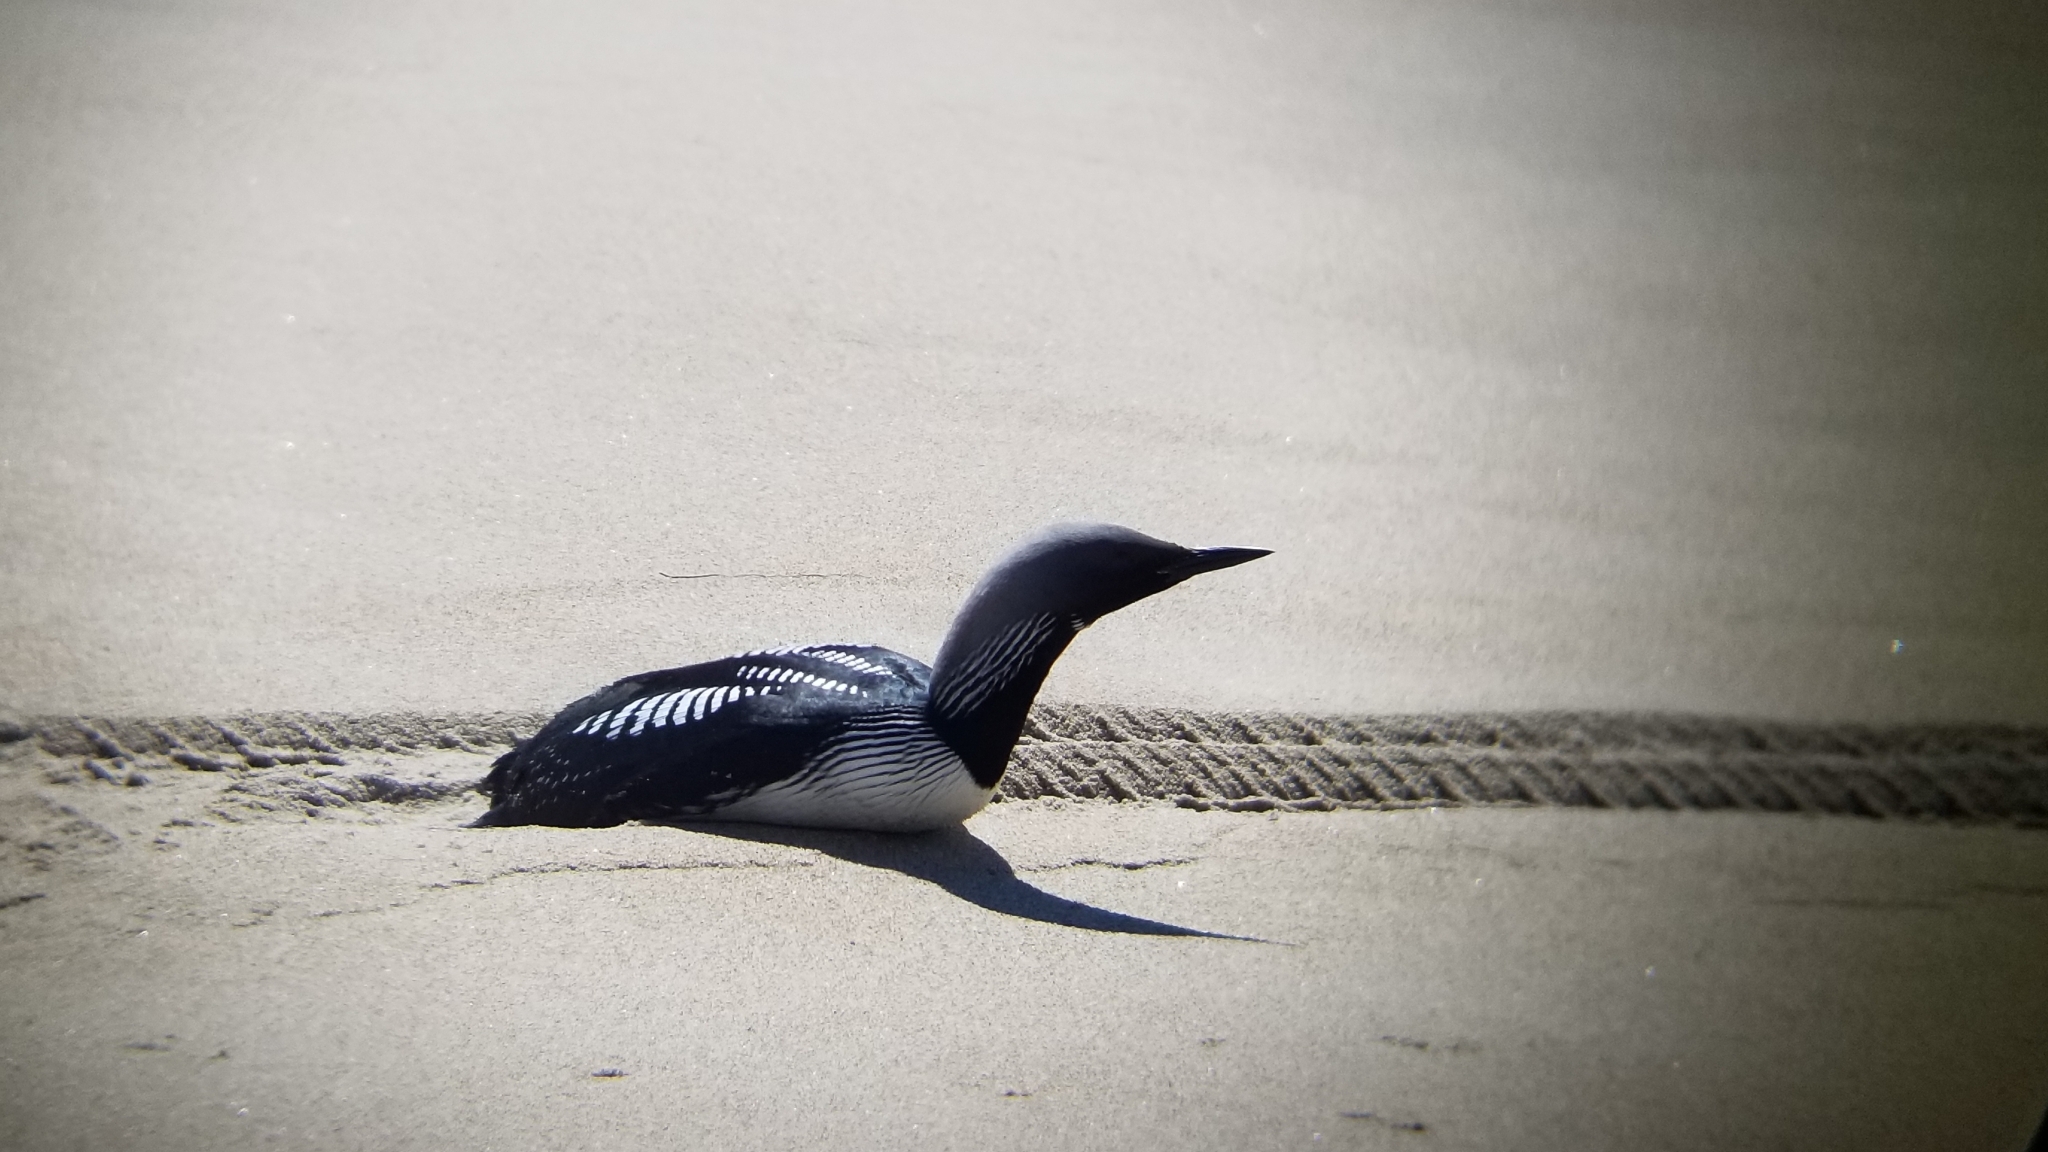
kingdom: Animalia
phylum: Chordata
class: Aves
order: Gaviiformes
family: Gaviidae
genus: Gavia
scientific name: Gavia pacifica
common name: Pacific loon
